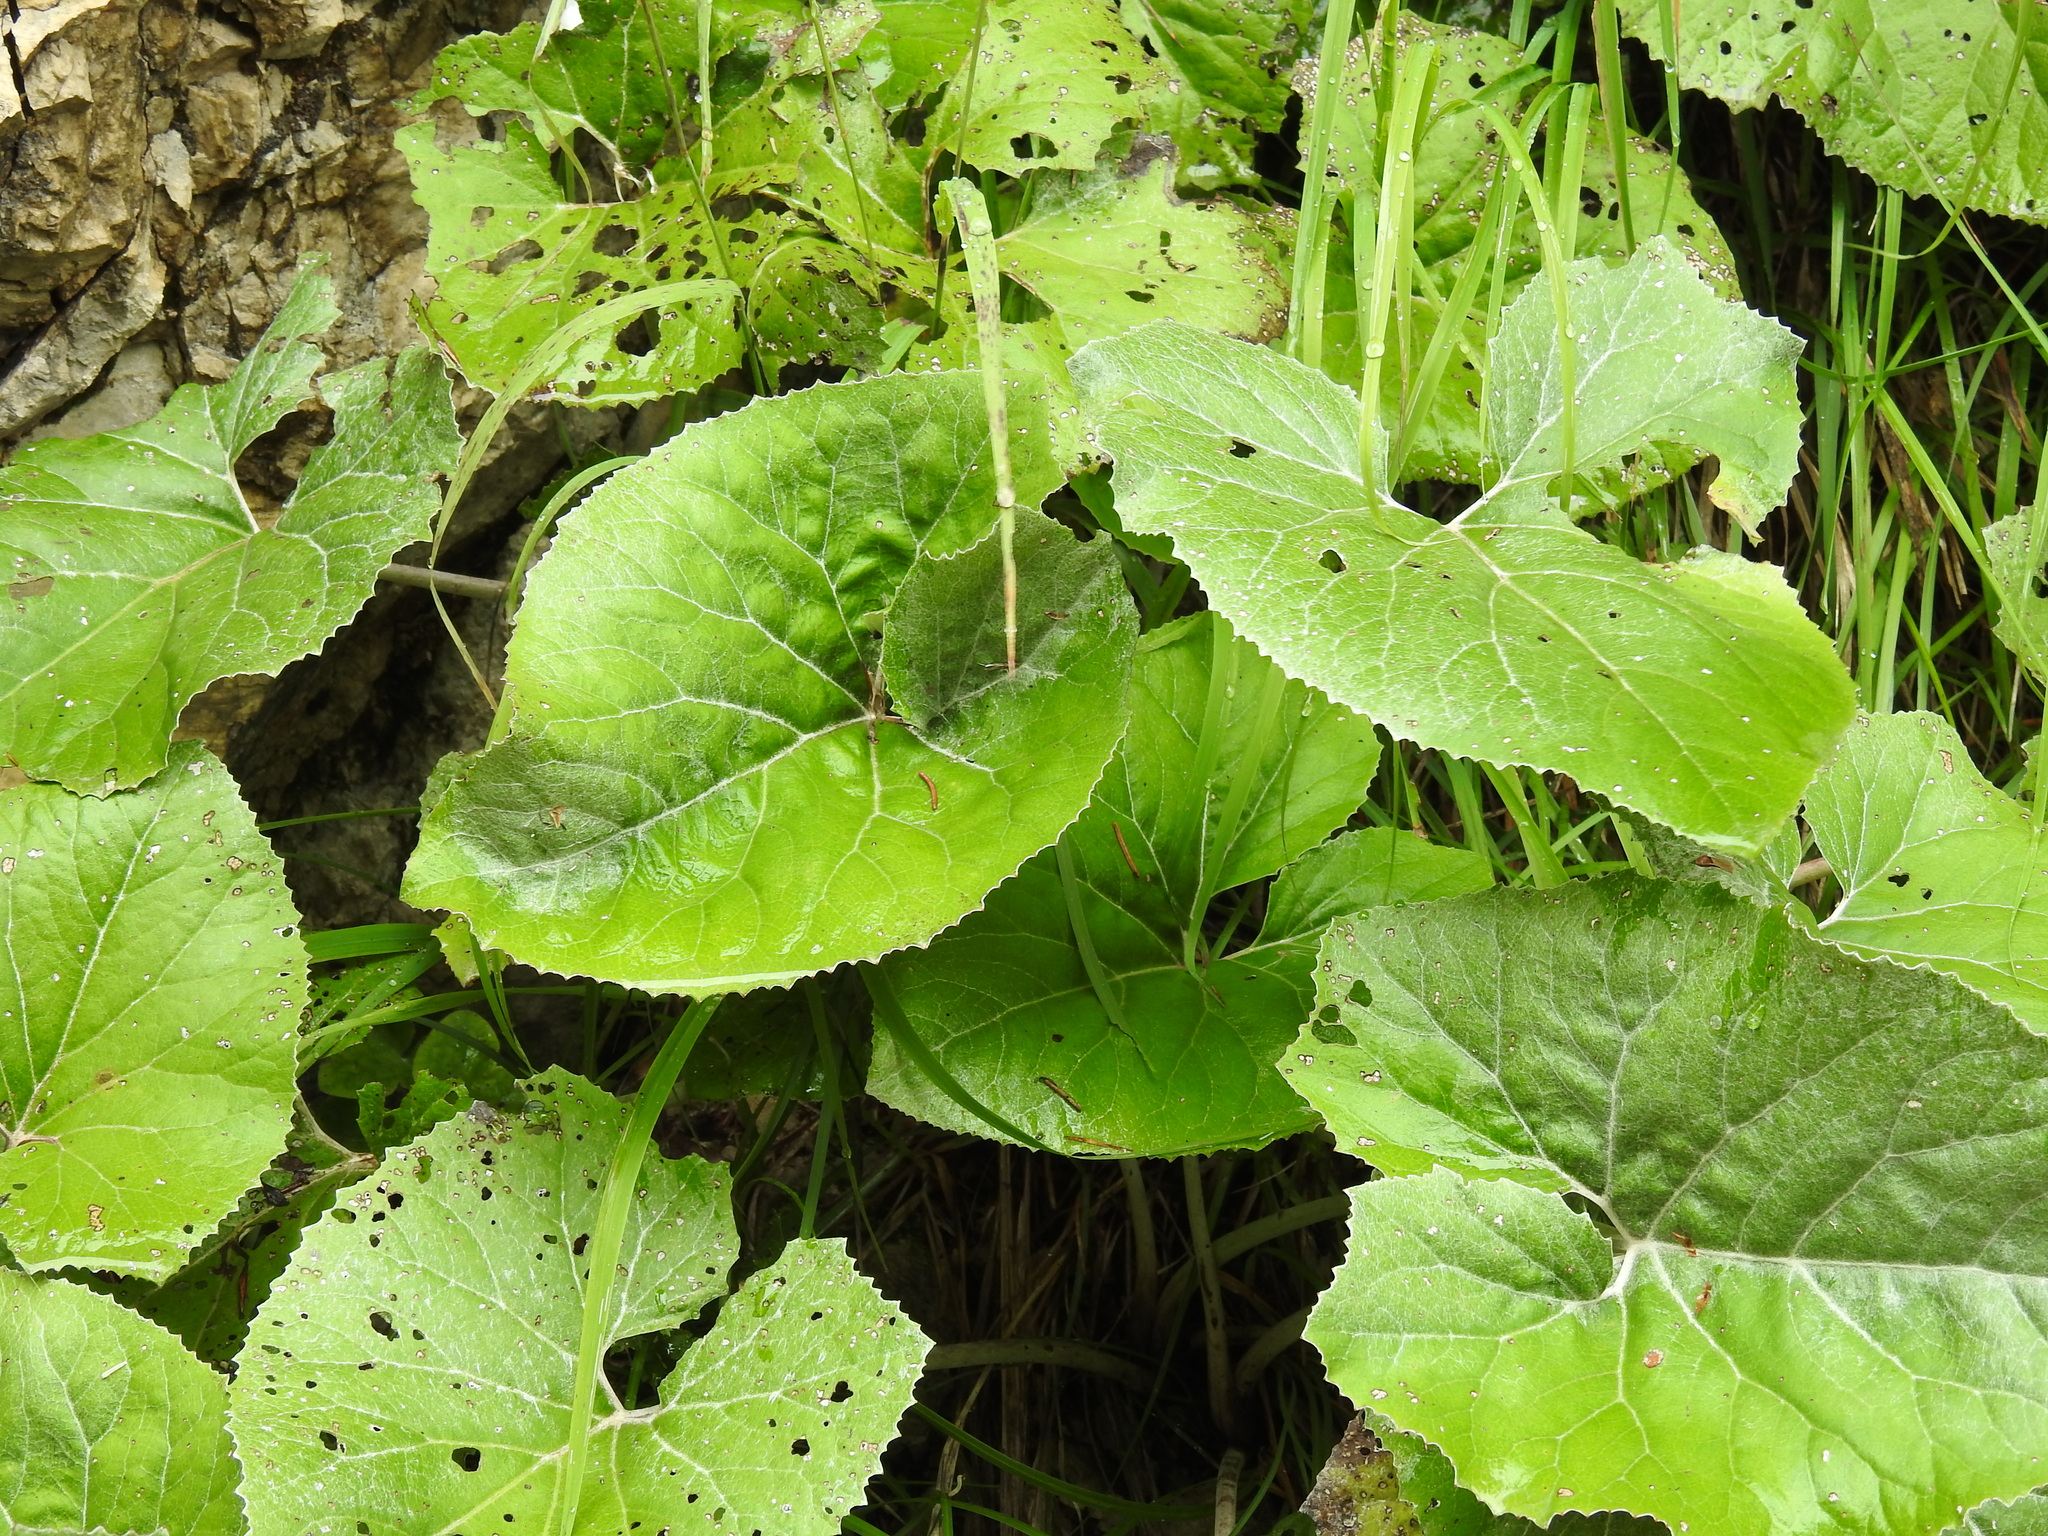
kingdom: Plantae
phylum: Tracheophyta
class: Magnoliopsida
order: Asterales
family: Asteraceae
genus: Petasites
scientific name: Petasites paradoxus
